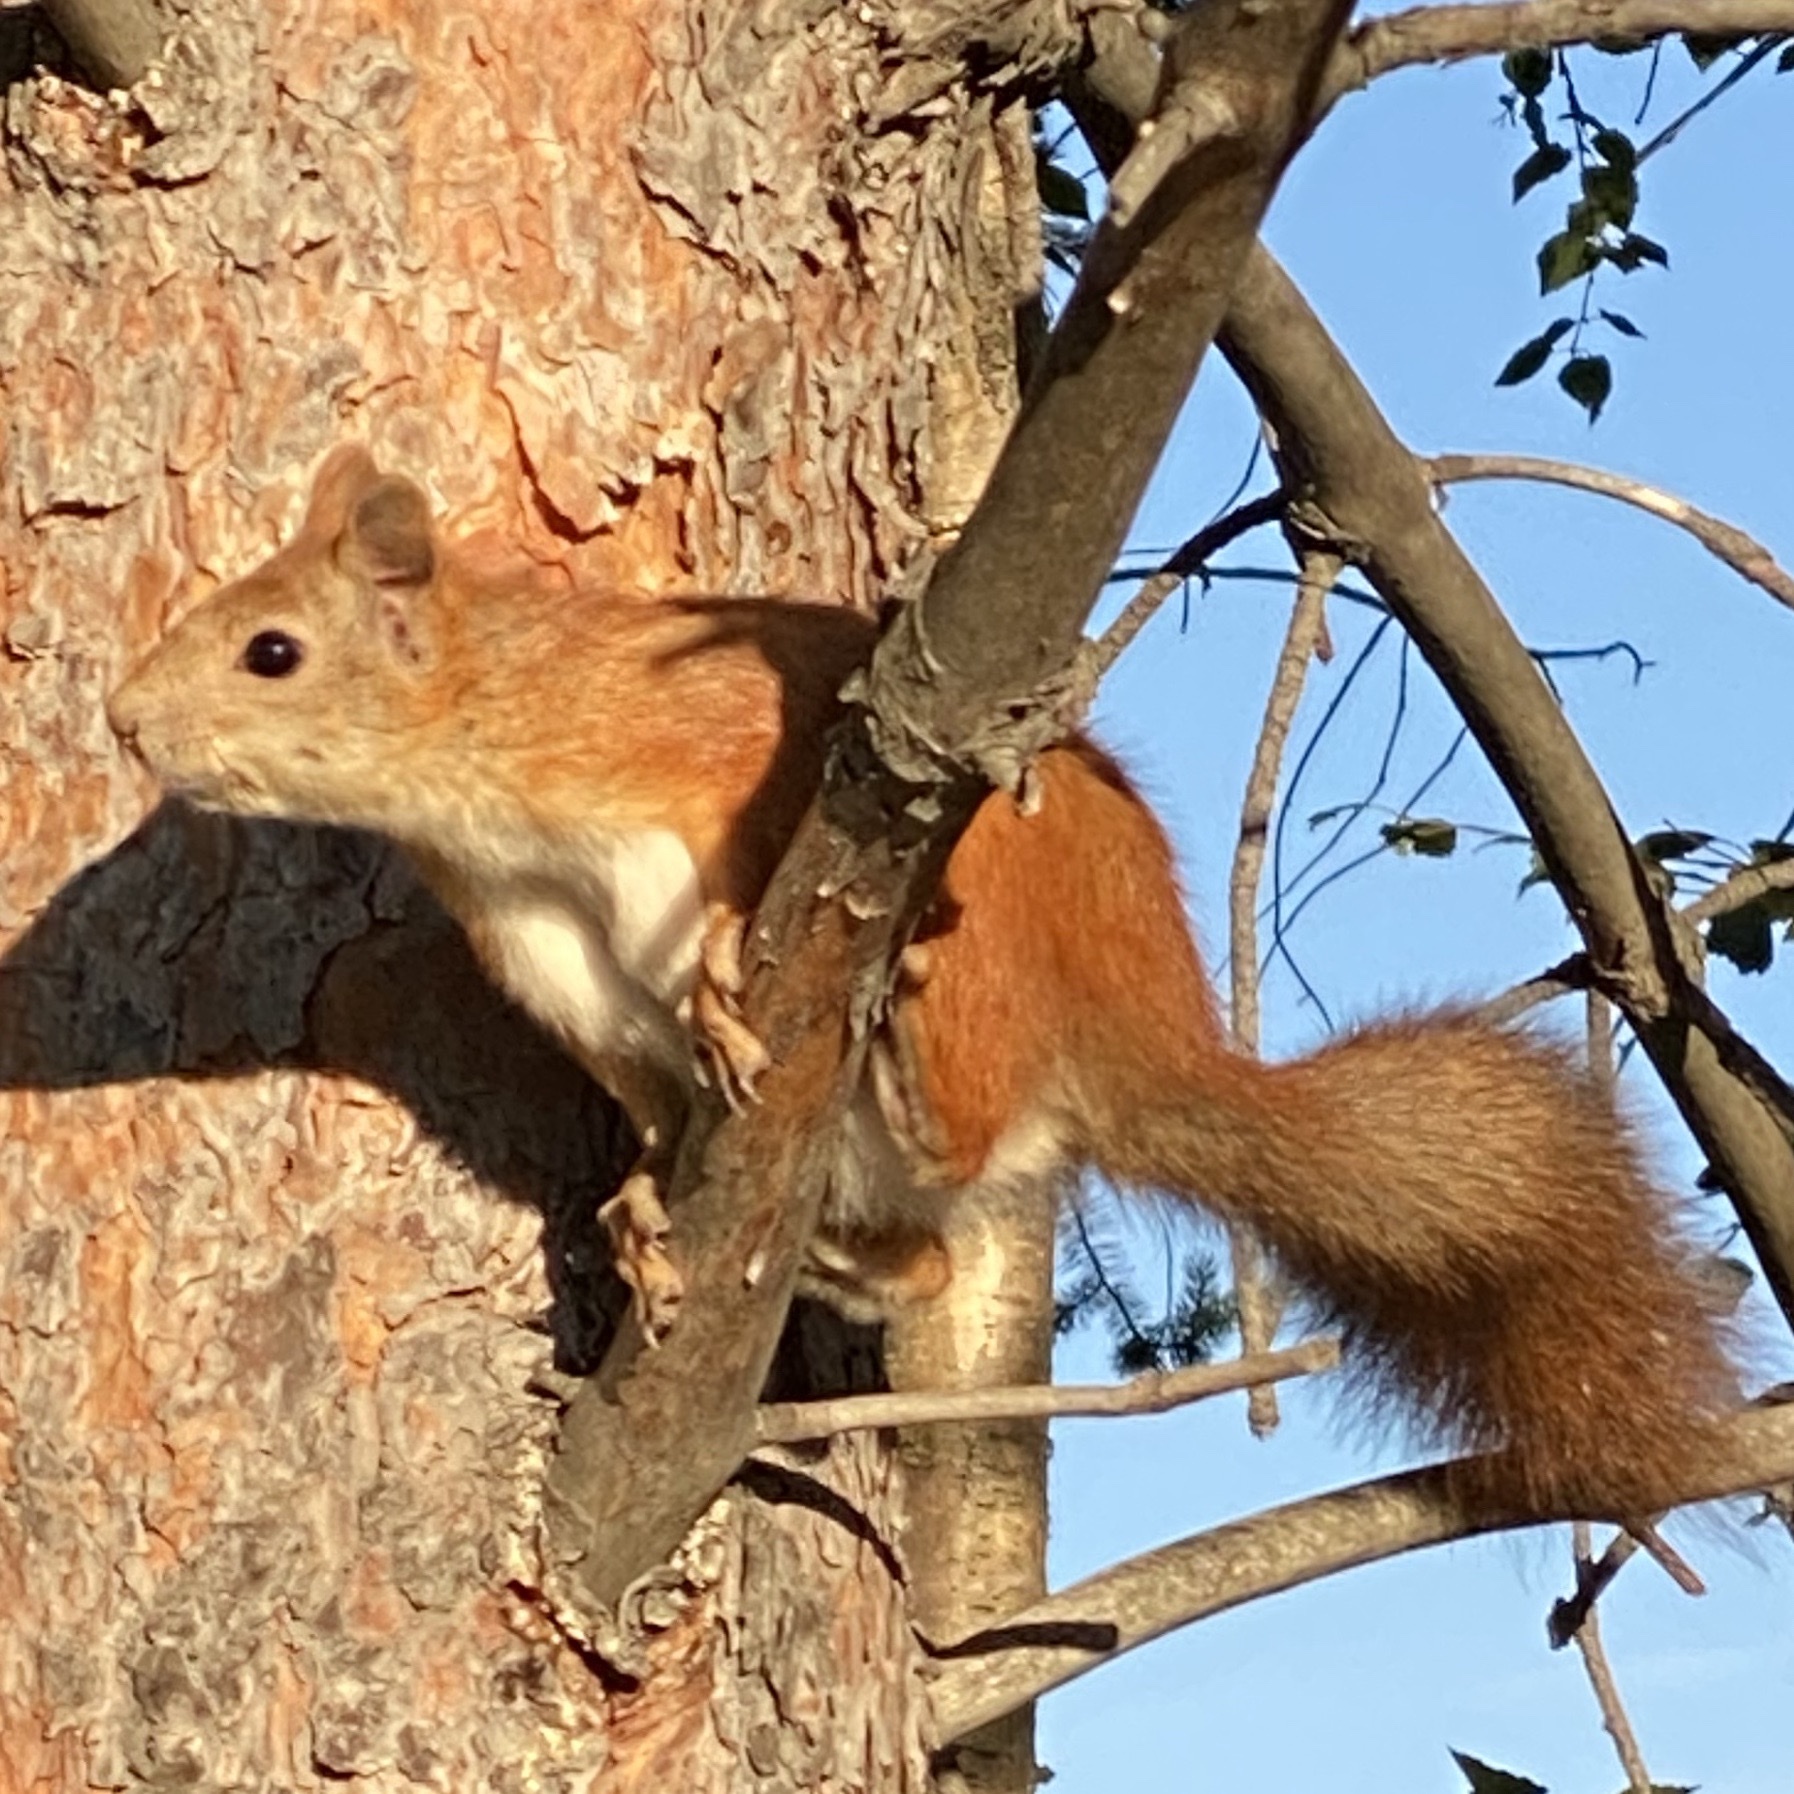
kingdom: Animalia
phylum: Chordata
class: Mammalia
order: Rodentia
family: Sciuridae
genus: Sciurus
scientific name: Sciurus vulgaris
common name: Eurasian red squirrel
